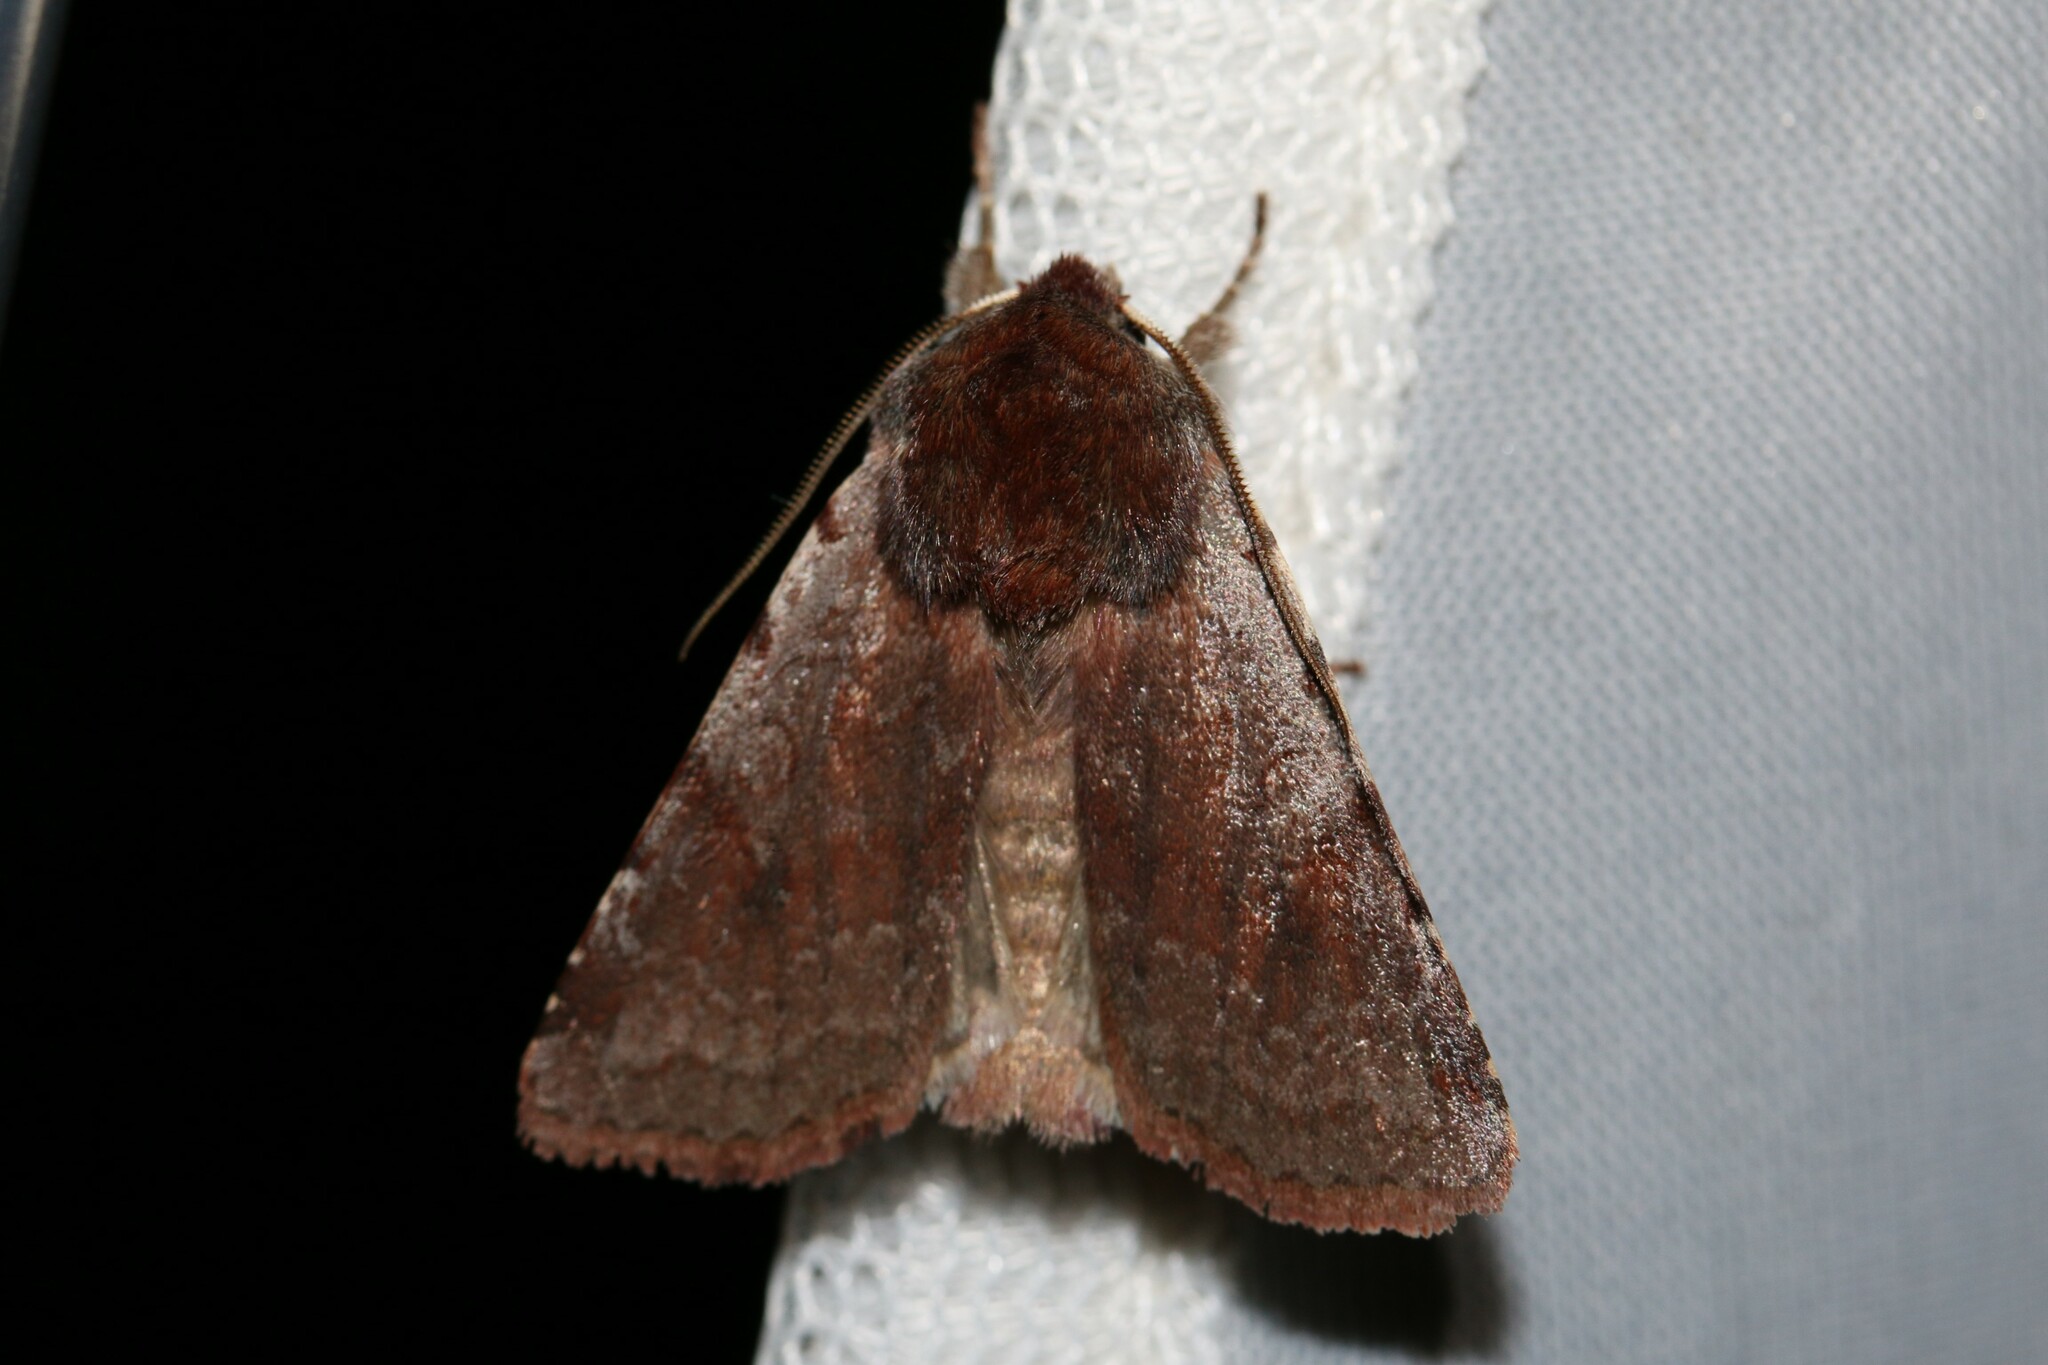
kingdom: Animalia
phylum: Arthropoda
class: Insecta
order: Lepidoptera
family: Noctuidae
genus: Cerastis
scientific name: Cerastis rubricosa
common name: Red chestnut
